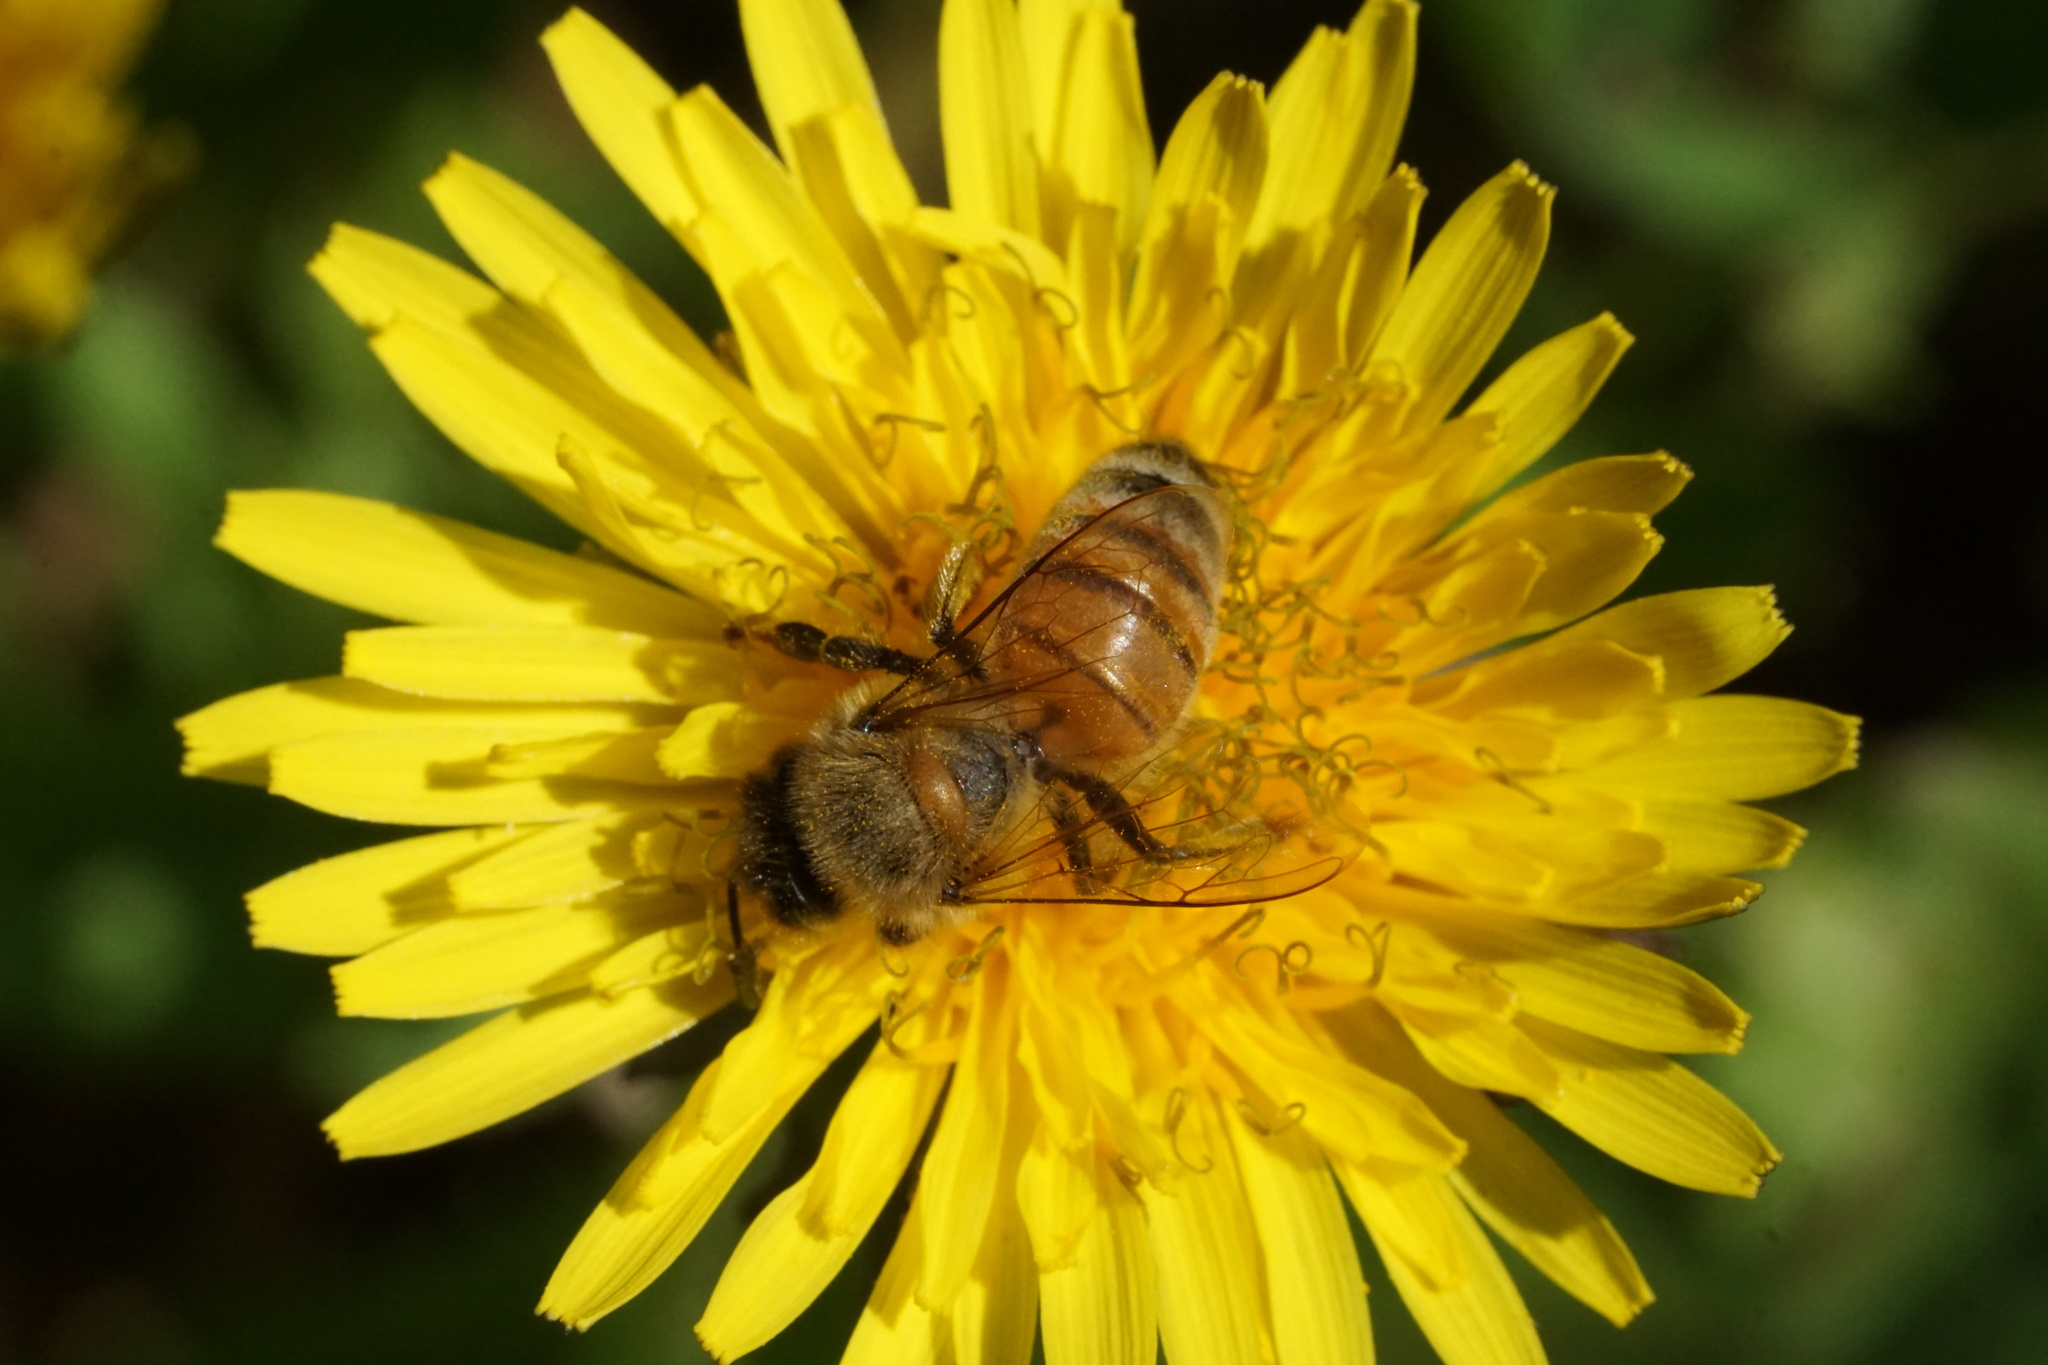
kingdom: Animalia
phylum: Arthropoda
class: Insecta
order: Hymenoptera
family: Apidae
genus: Apis
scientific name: Apis mellifera
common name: Honey bee
